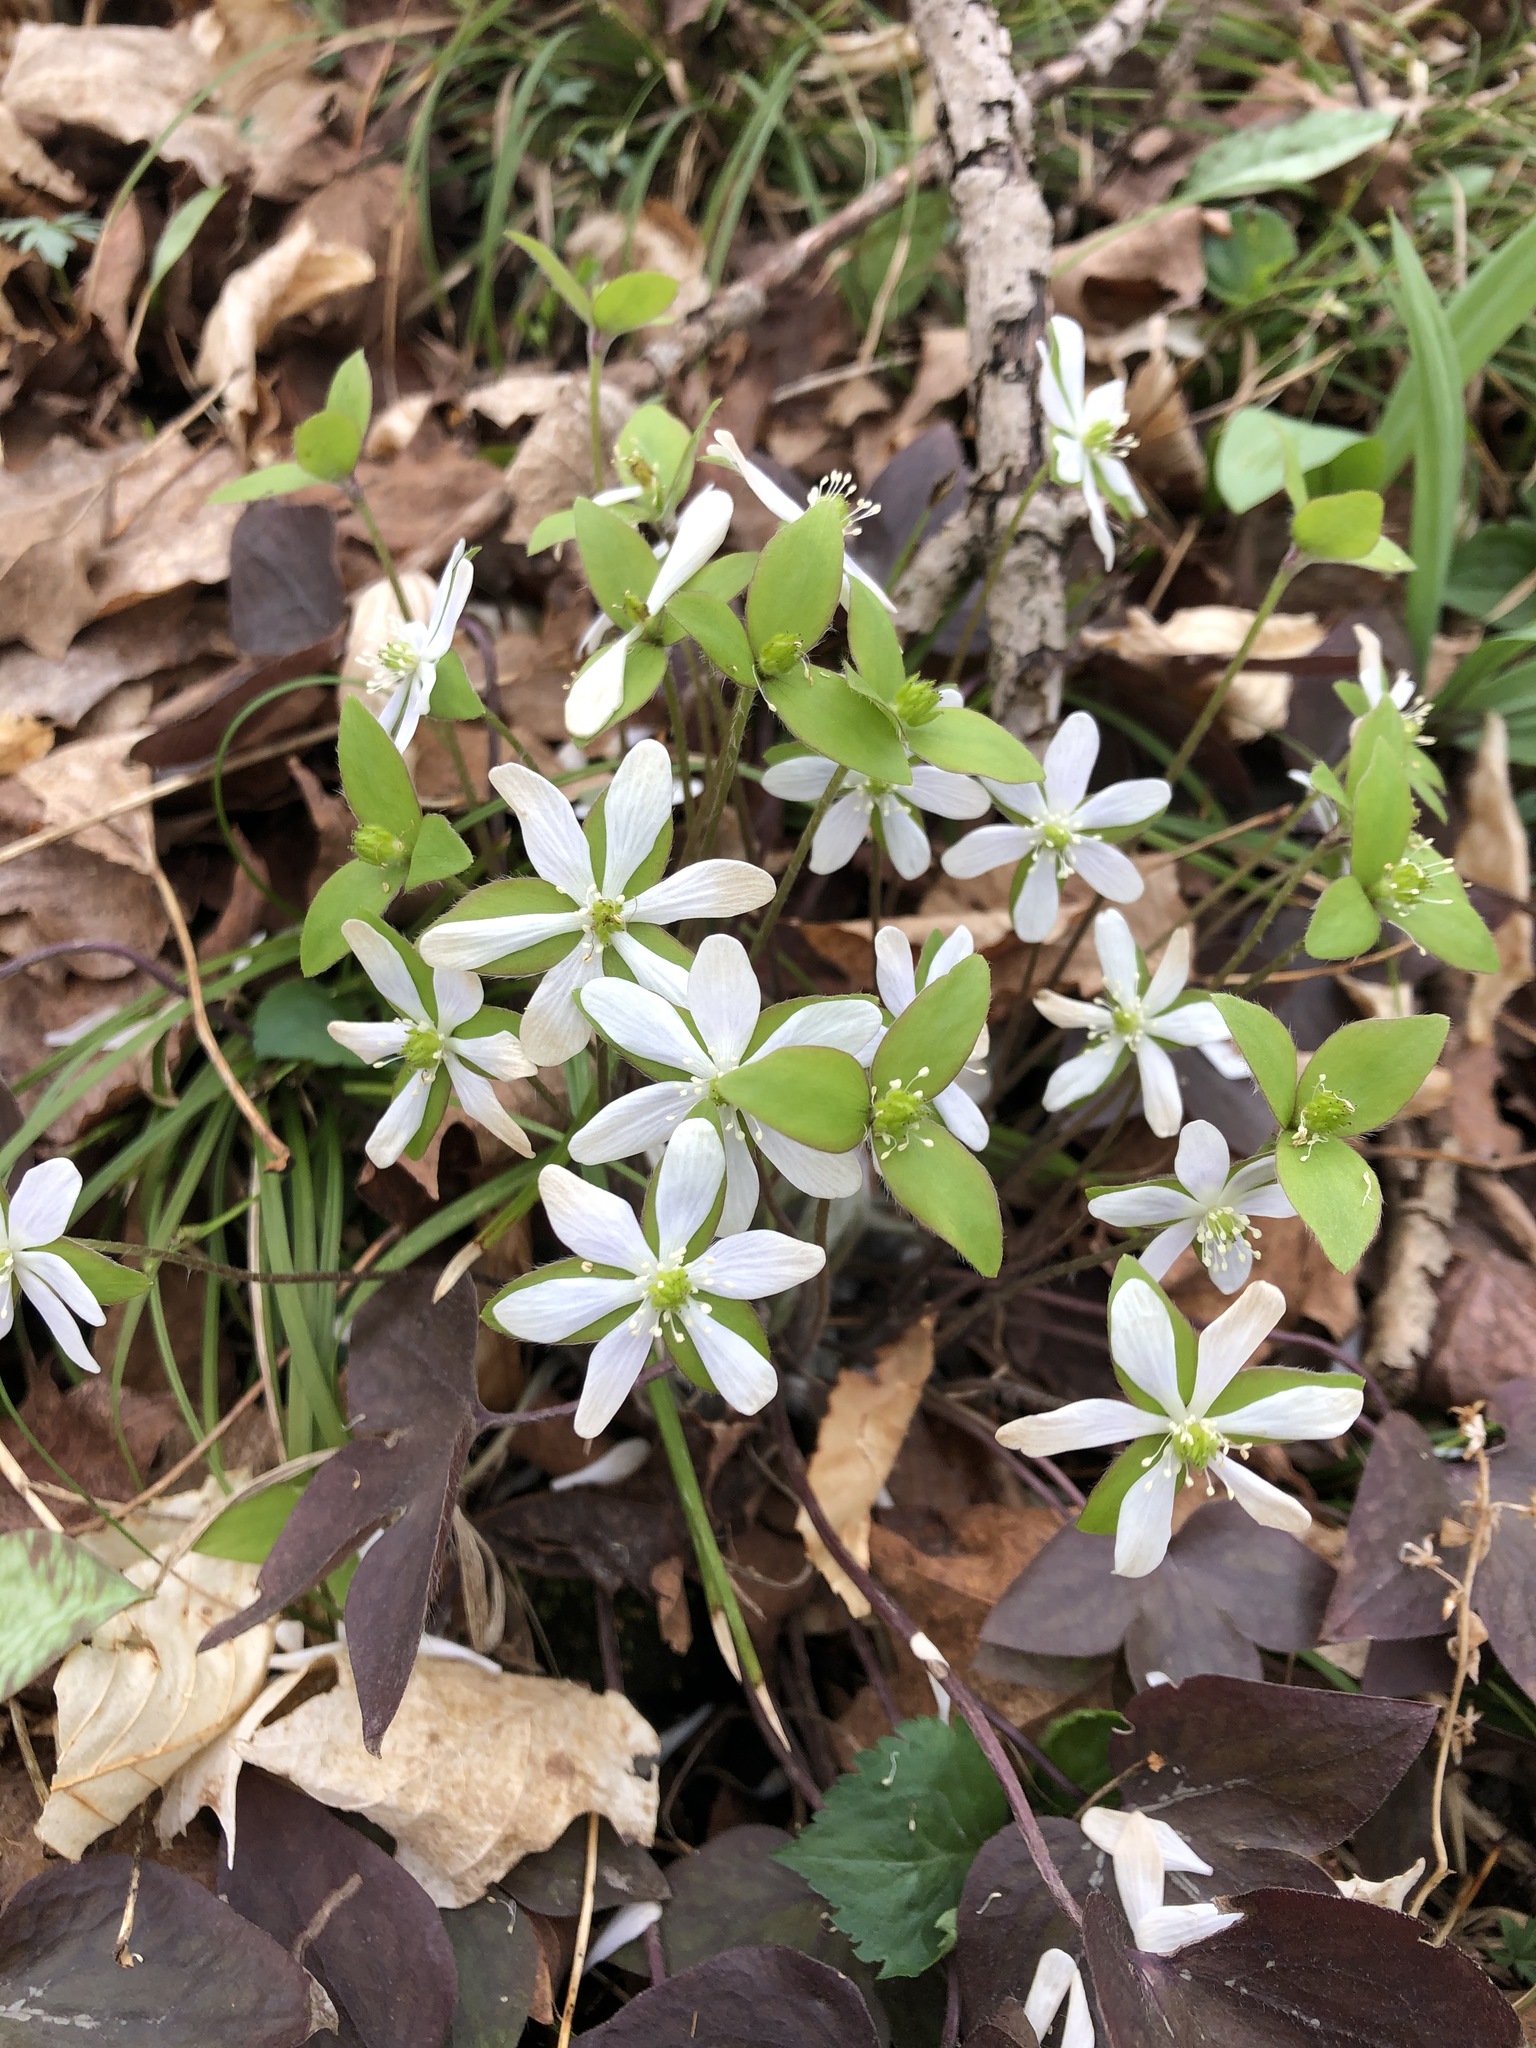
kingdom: Plantae
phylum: Tracheophyta
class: Magnoliopsida
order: Ranunculales
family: Ranunculaceae
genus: Hepatica
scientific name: Hepatica acutiloba
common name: Sharp-lobed hepatica
